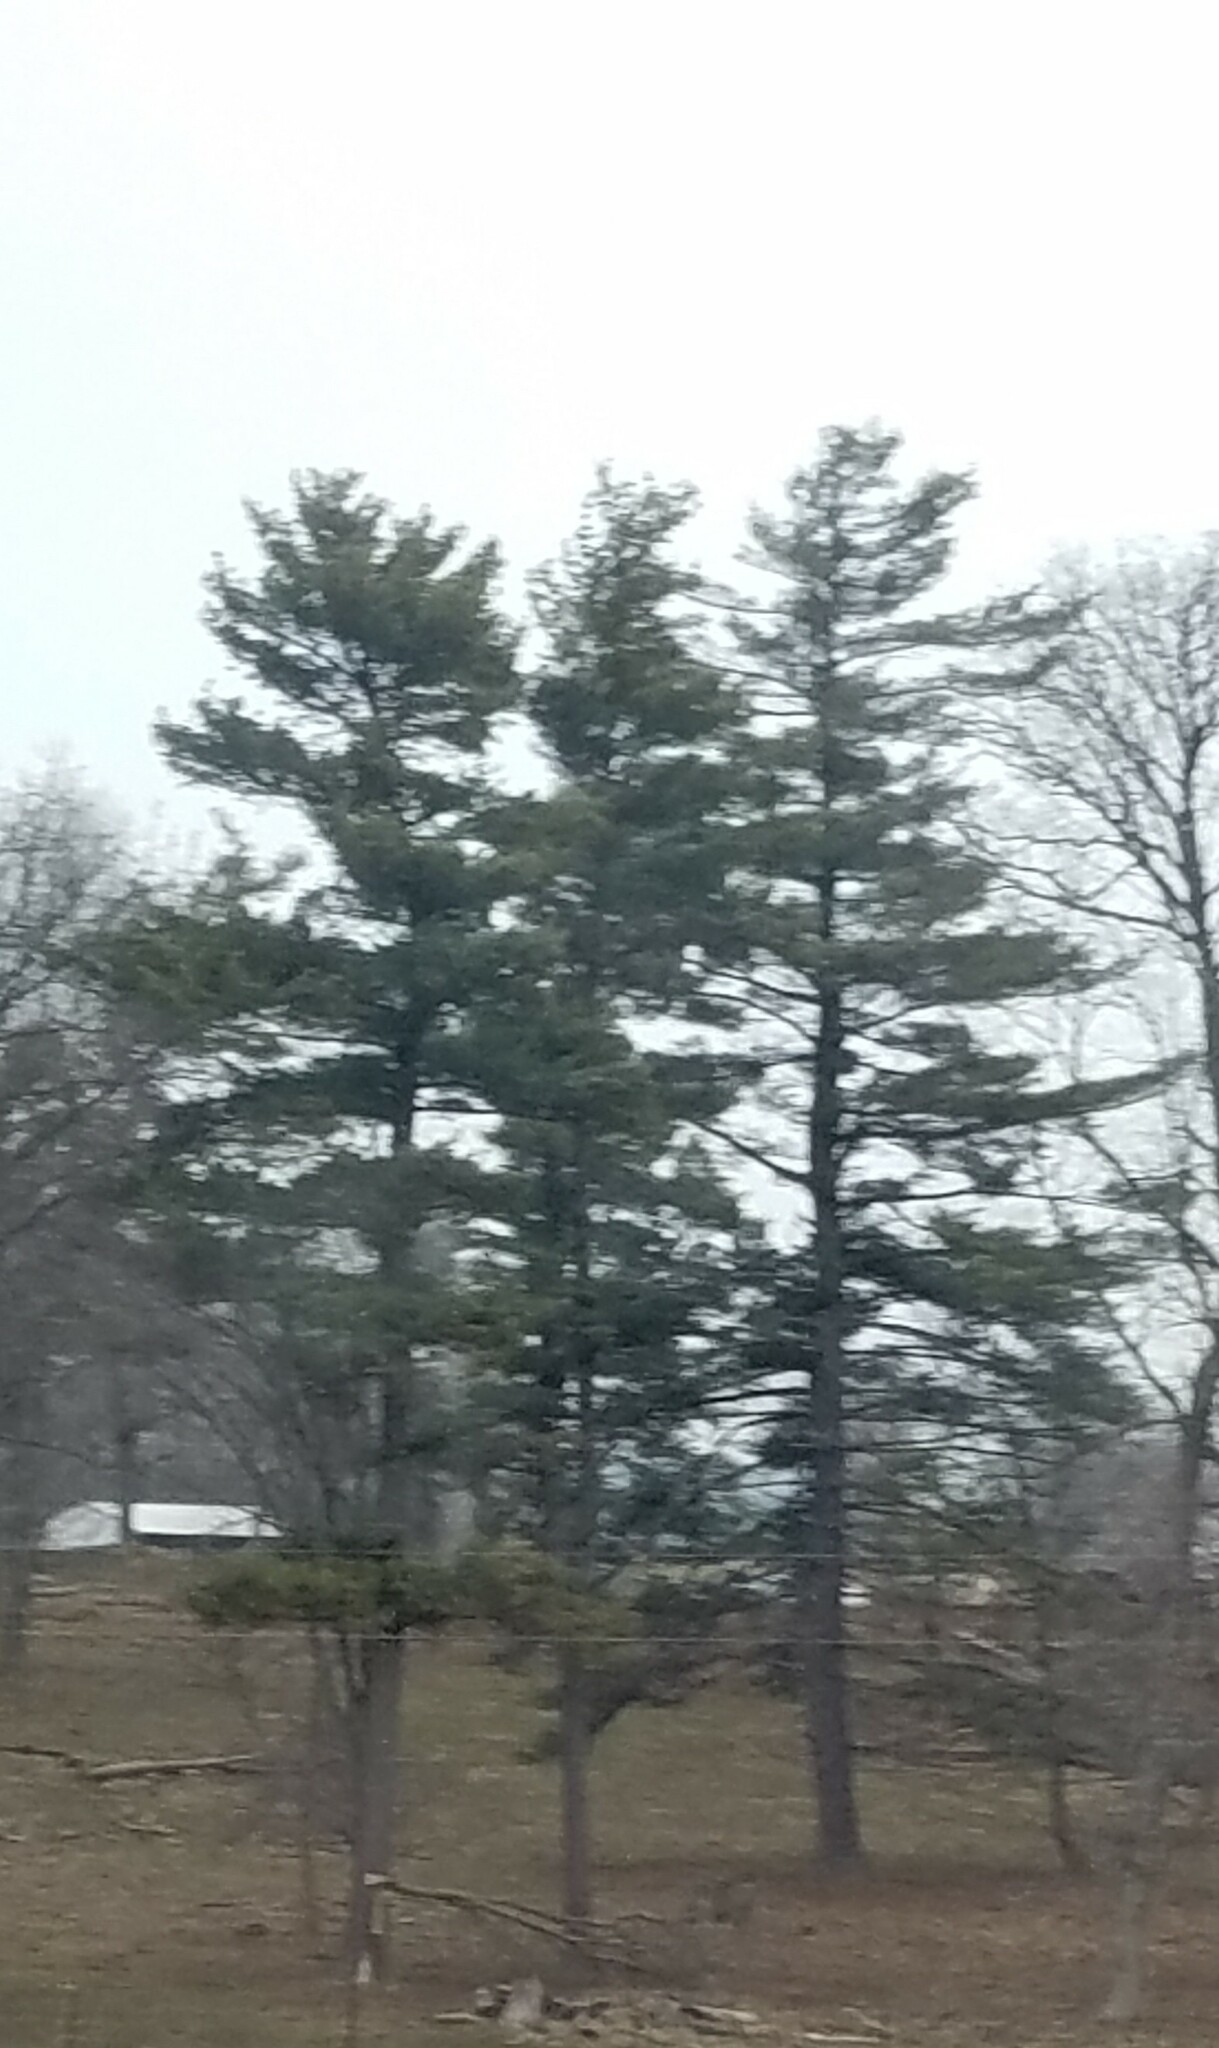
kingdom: Plantae
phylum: Tracheophyta
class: Pinopsida
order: Pinales
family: Pinaceae
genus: Pinus
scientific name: Pinus strobus
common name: Weymouth pine
